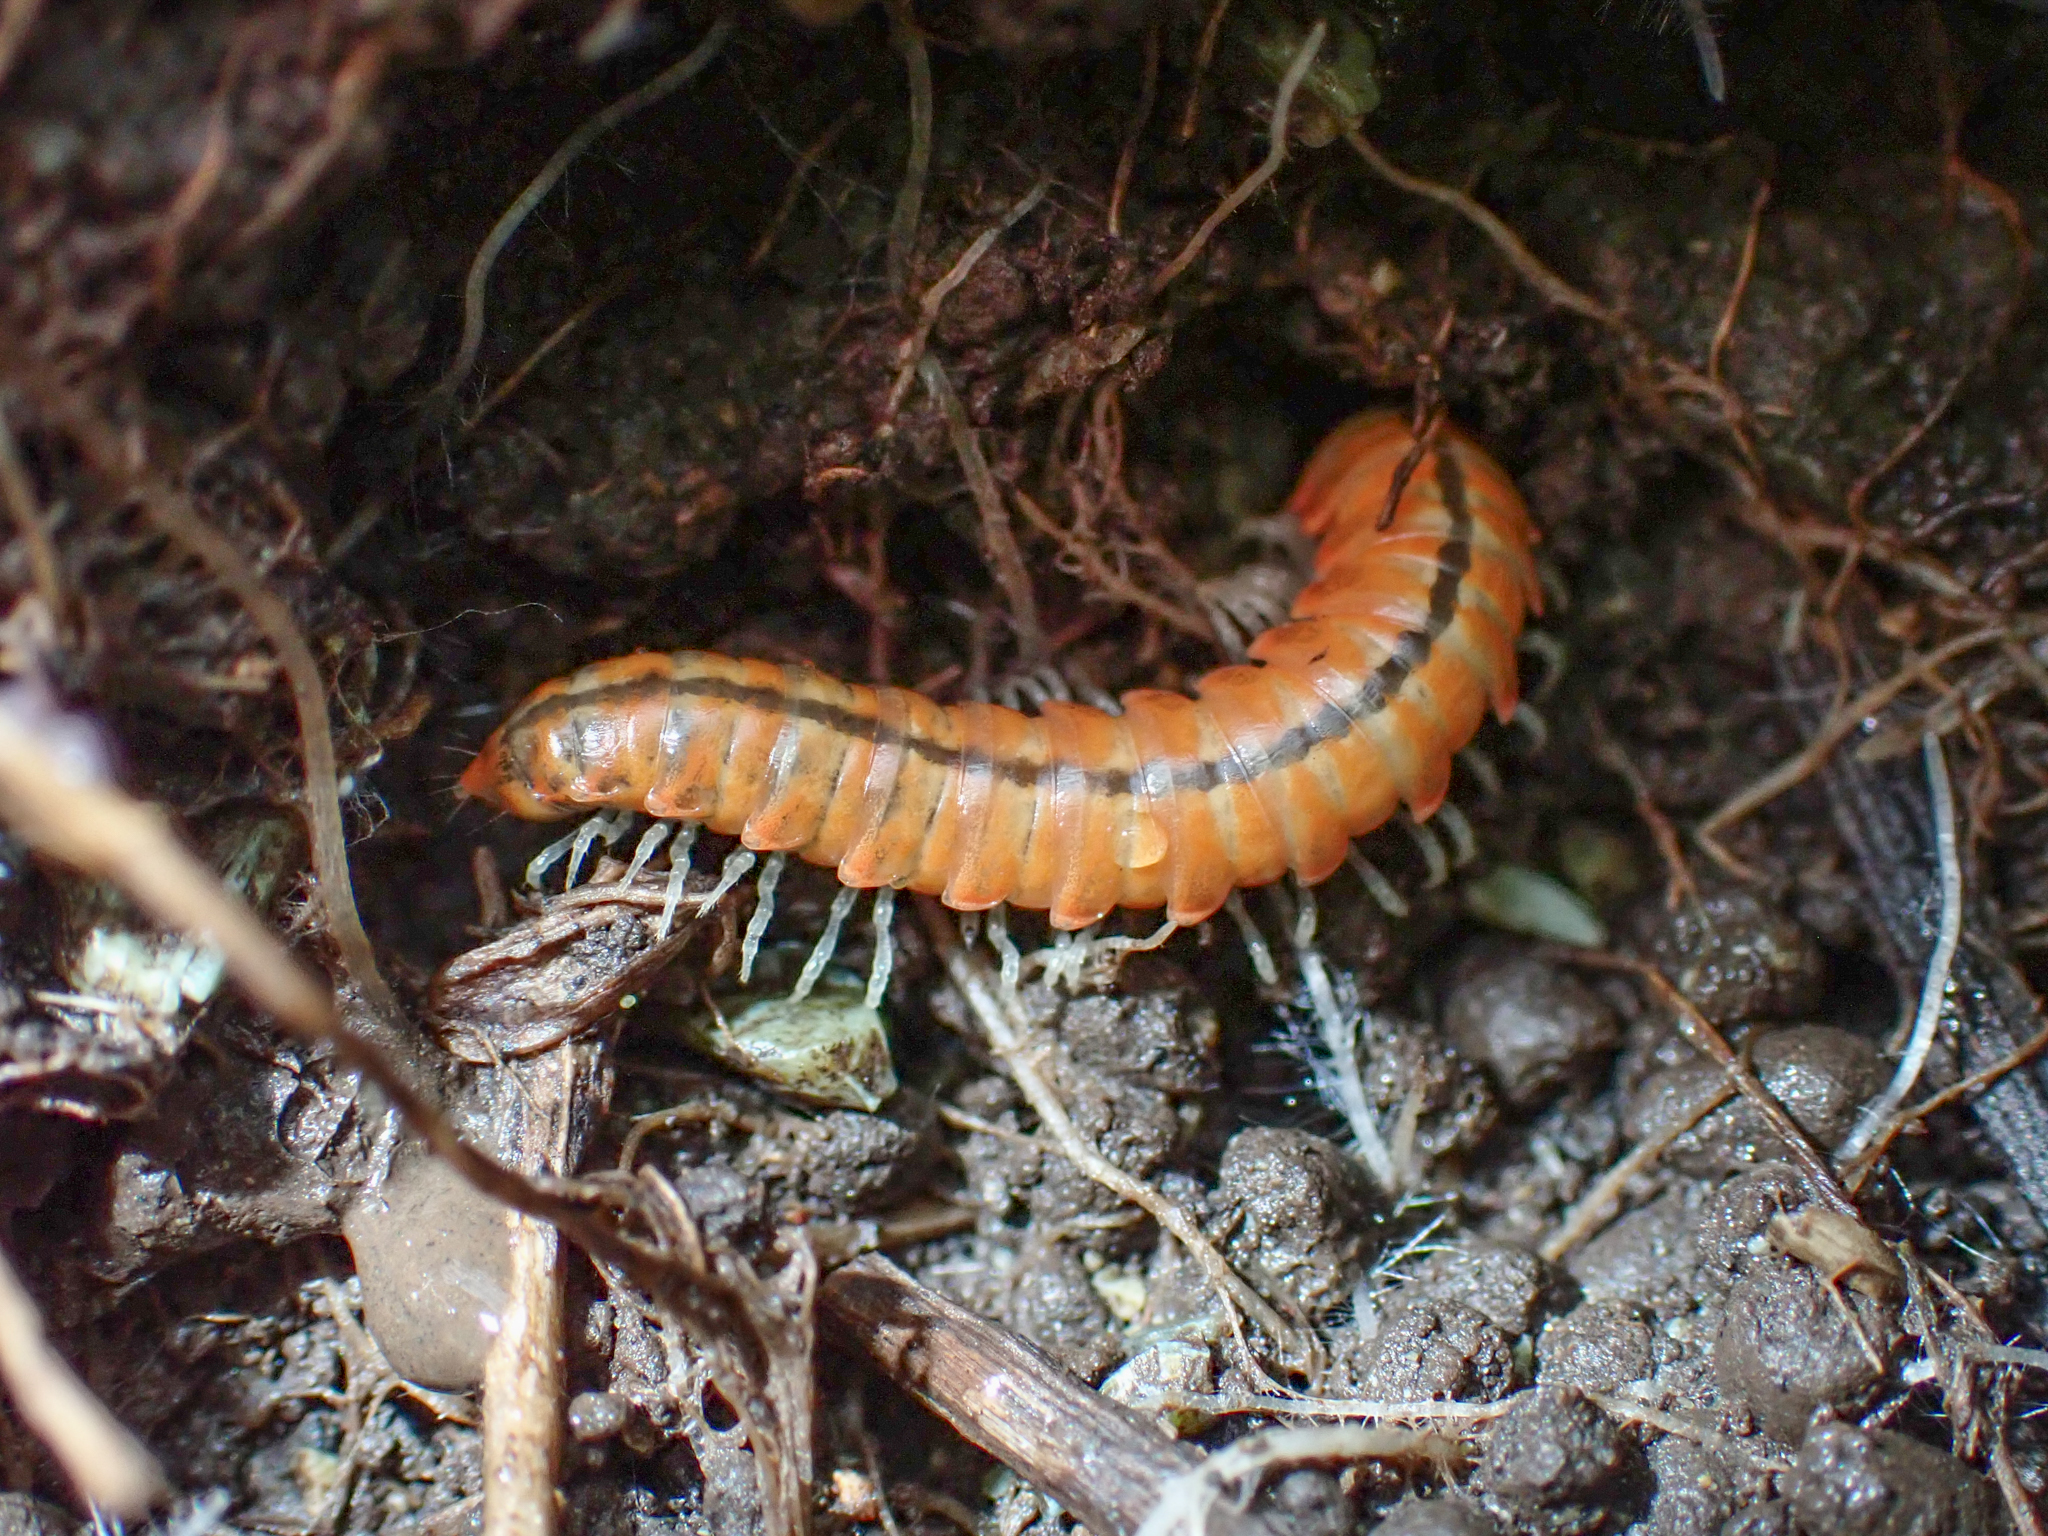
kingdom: Animalia
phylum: Arthropoda
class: Diplopoda
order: Polydesmida
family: Xystodesmidae
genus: Motyxia
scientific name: Motyxia bistipita
